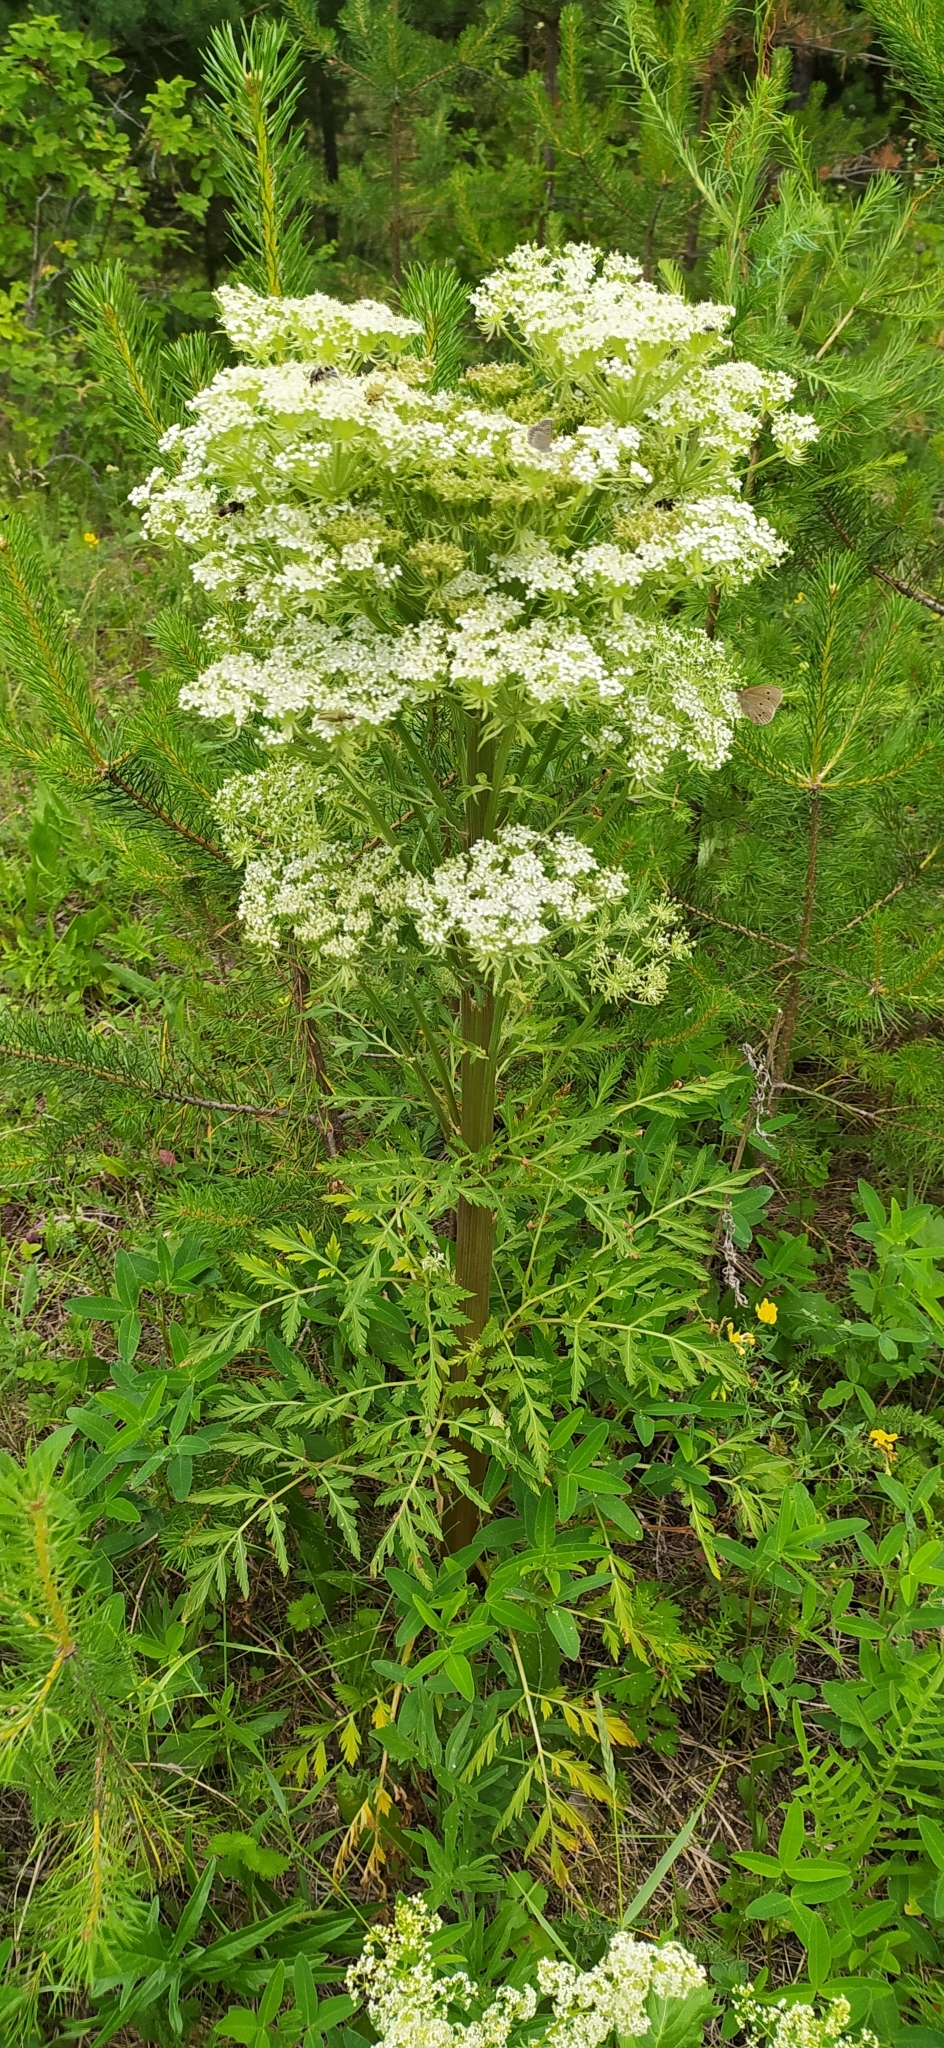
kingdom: Plantae
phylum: Tracheophyta
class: Magnoliopsida
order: Apiales
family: Apiaceae
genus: Pleurospermum
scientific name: Pleurospermum uralense
